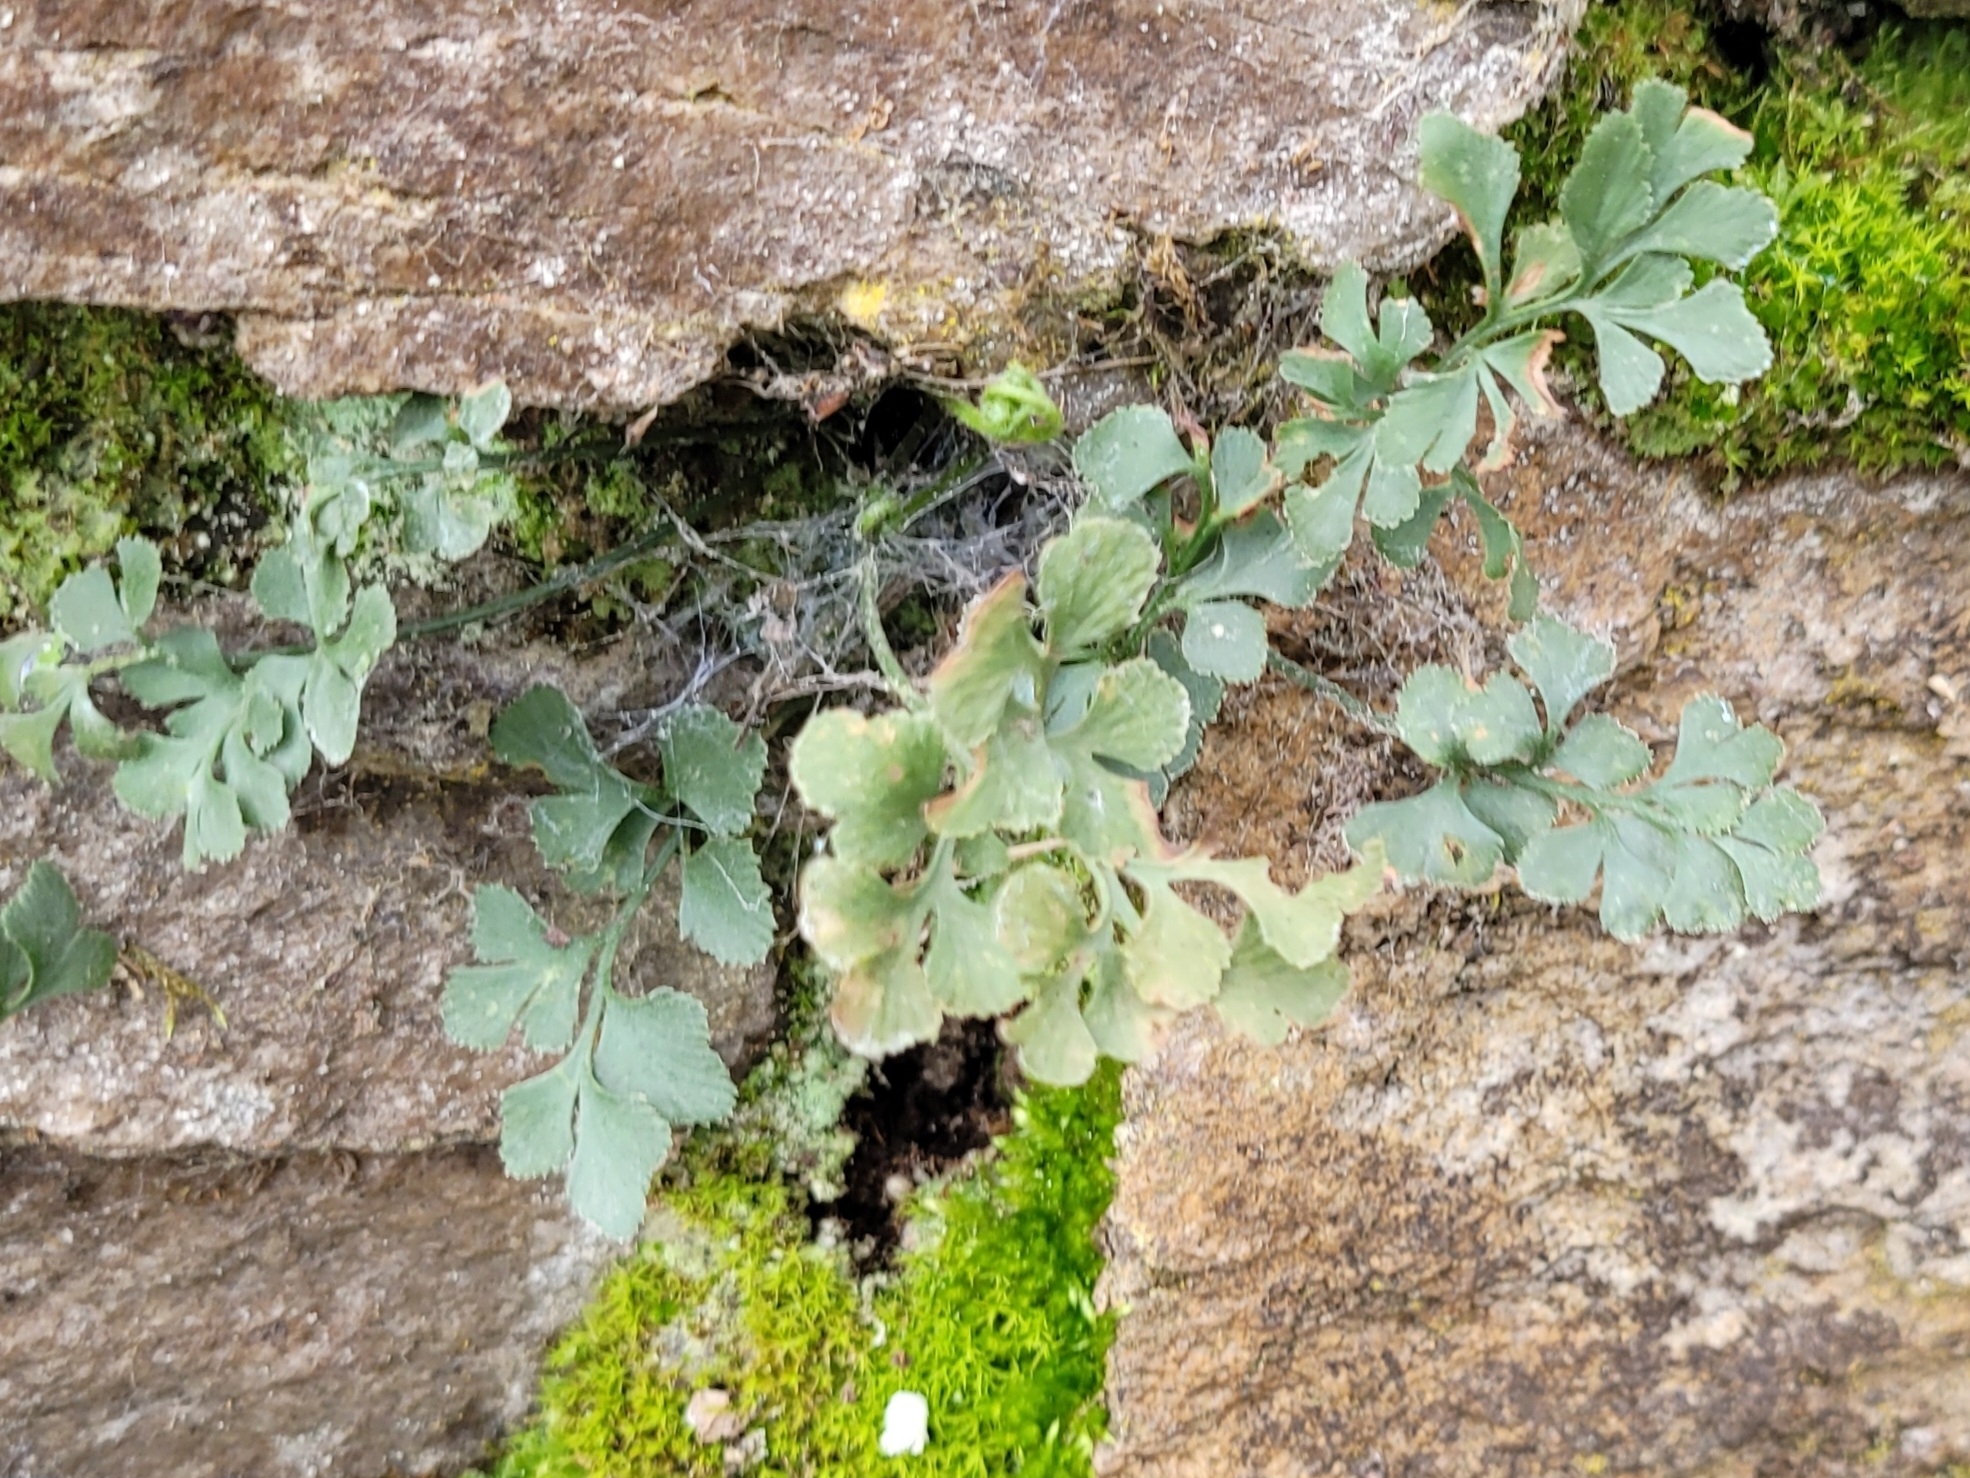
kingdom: Plantae
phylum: Tracheophyta
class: Polypodiopsida
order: Polypodiales
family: Aspleniaceae
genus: Asplenium
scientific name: Asplenium ruta-muraria
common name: Wall-rue
